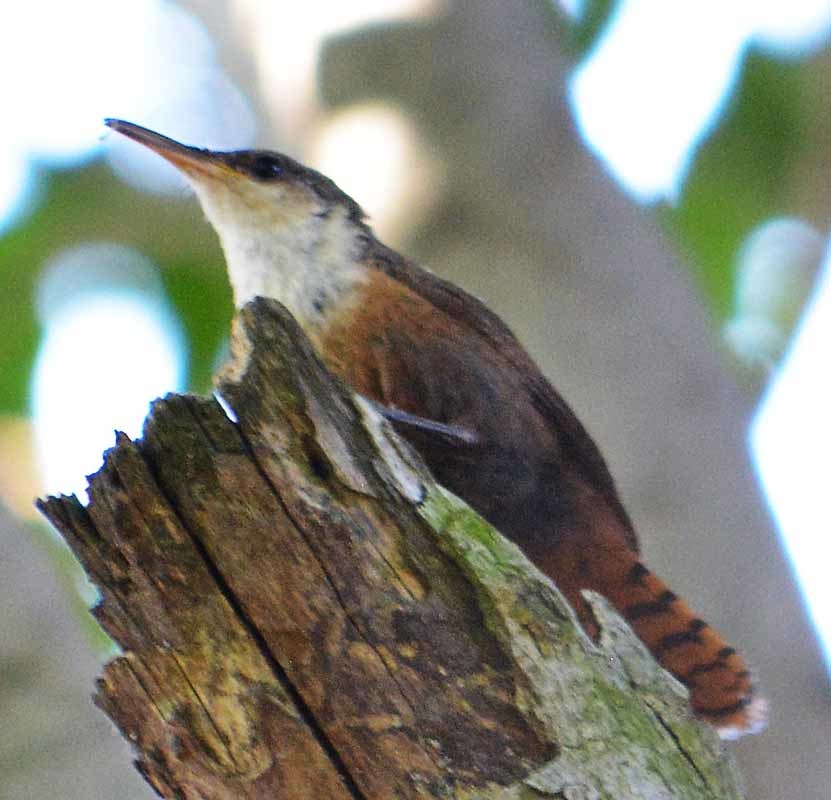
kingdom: Animalia
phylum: Chordata
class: Aves
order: Passeriformes
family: Troglodytidae
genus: Catherpes
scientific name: Catherpes mexicanus
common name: Canyon wren
